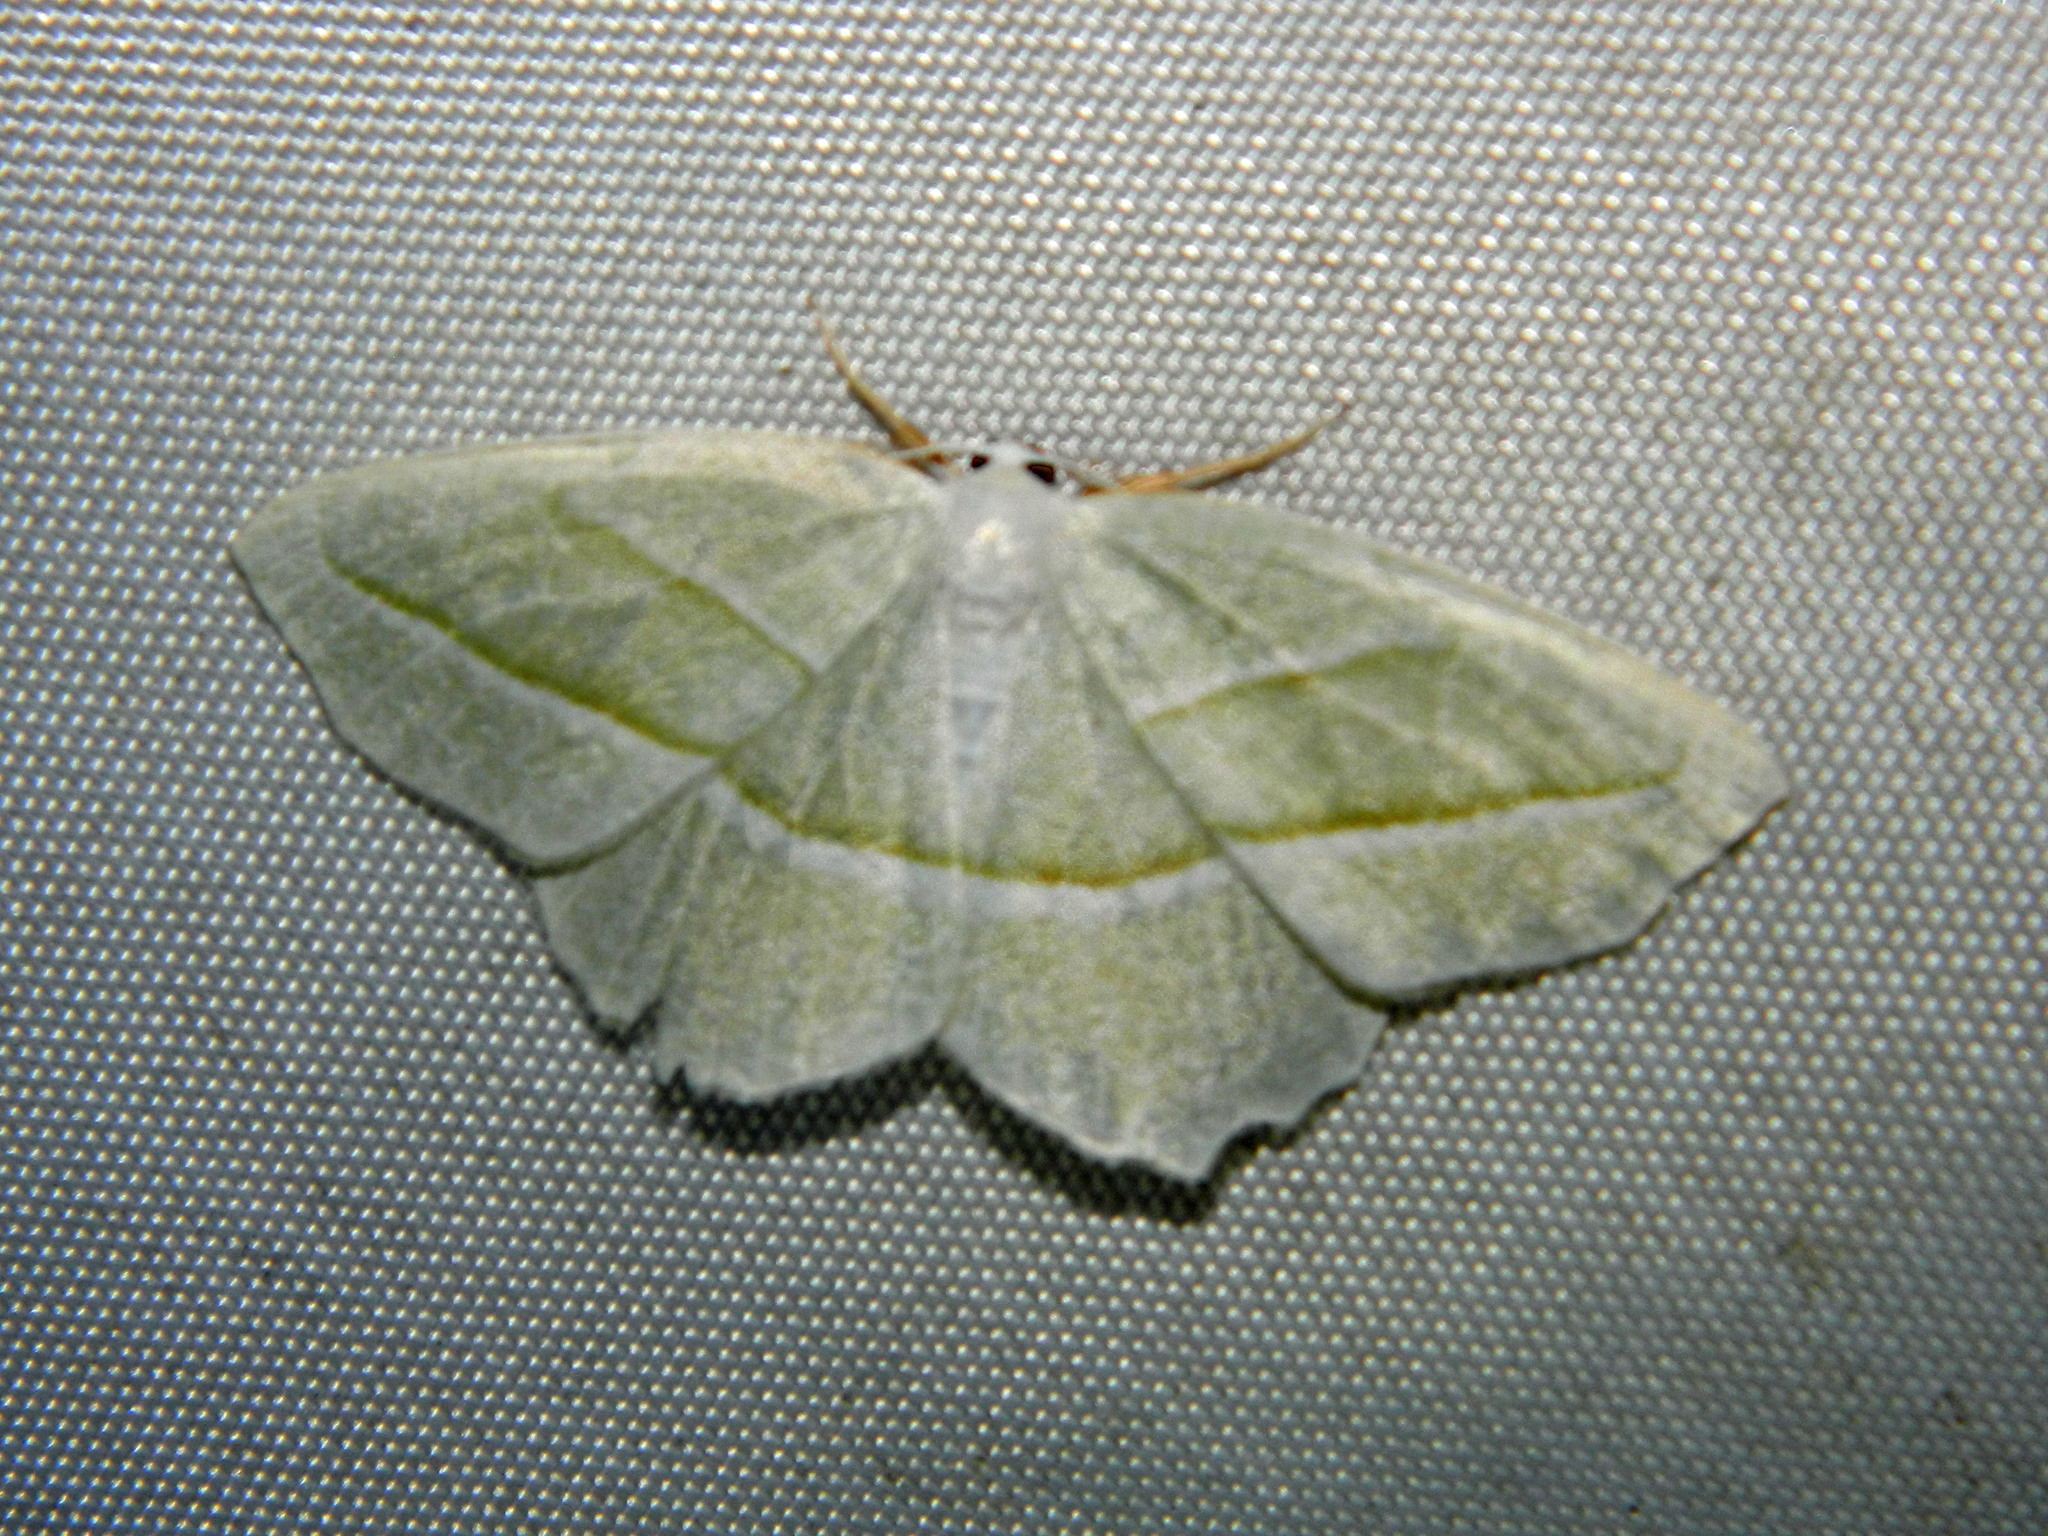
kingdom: Animalia
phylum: Arthropoda
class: Insecta
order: Lepidoptera
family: Geometridae
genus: Campaea
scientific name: Campaea perlata
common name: Fringed looper
